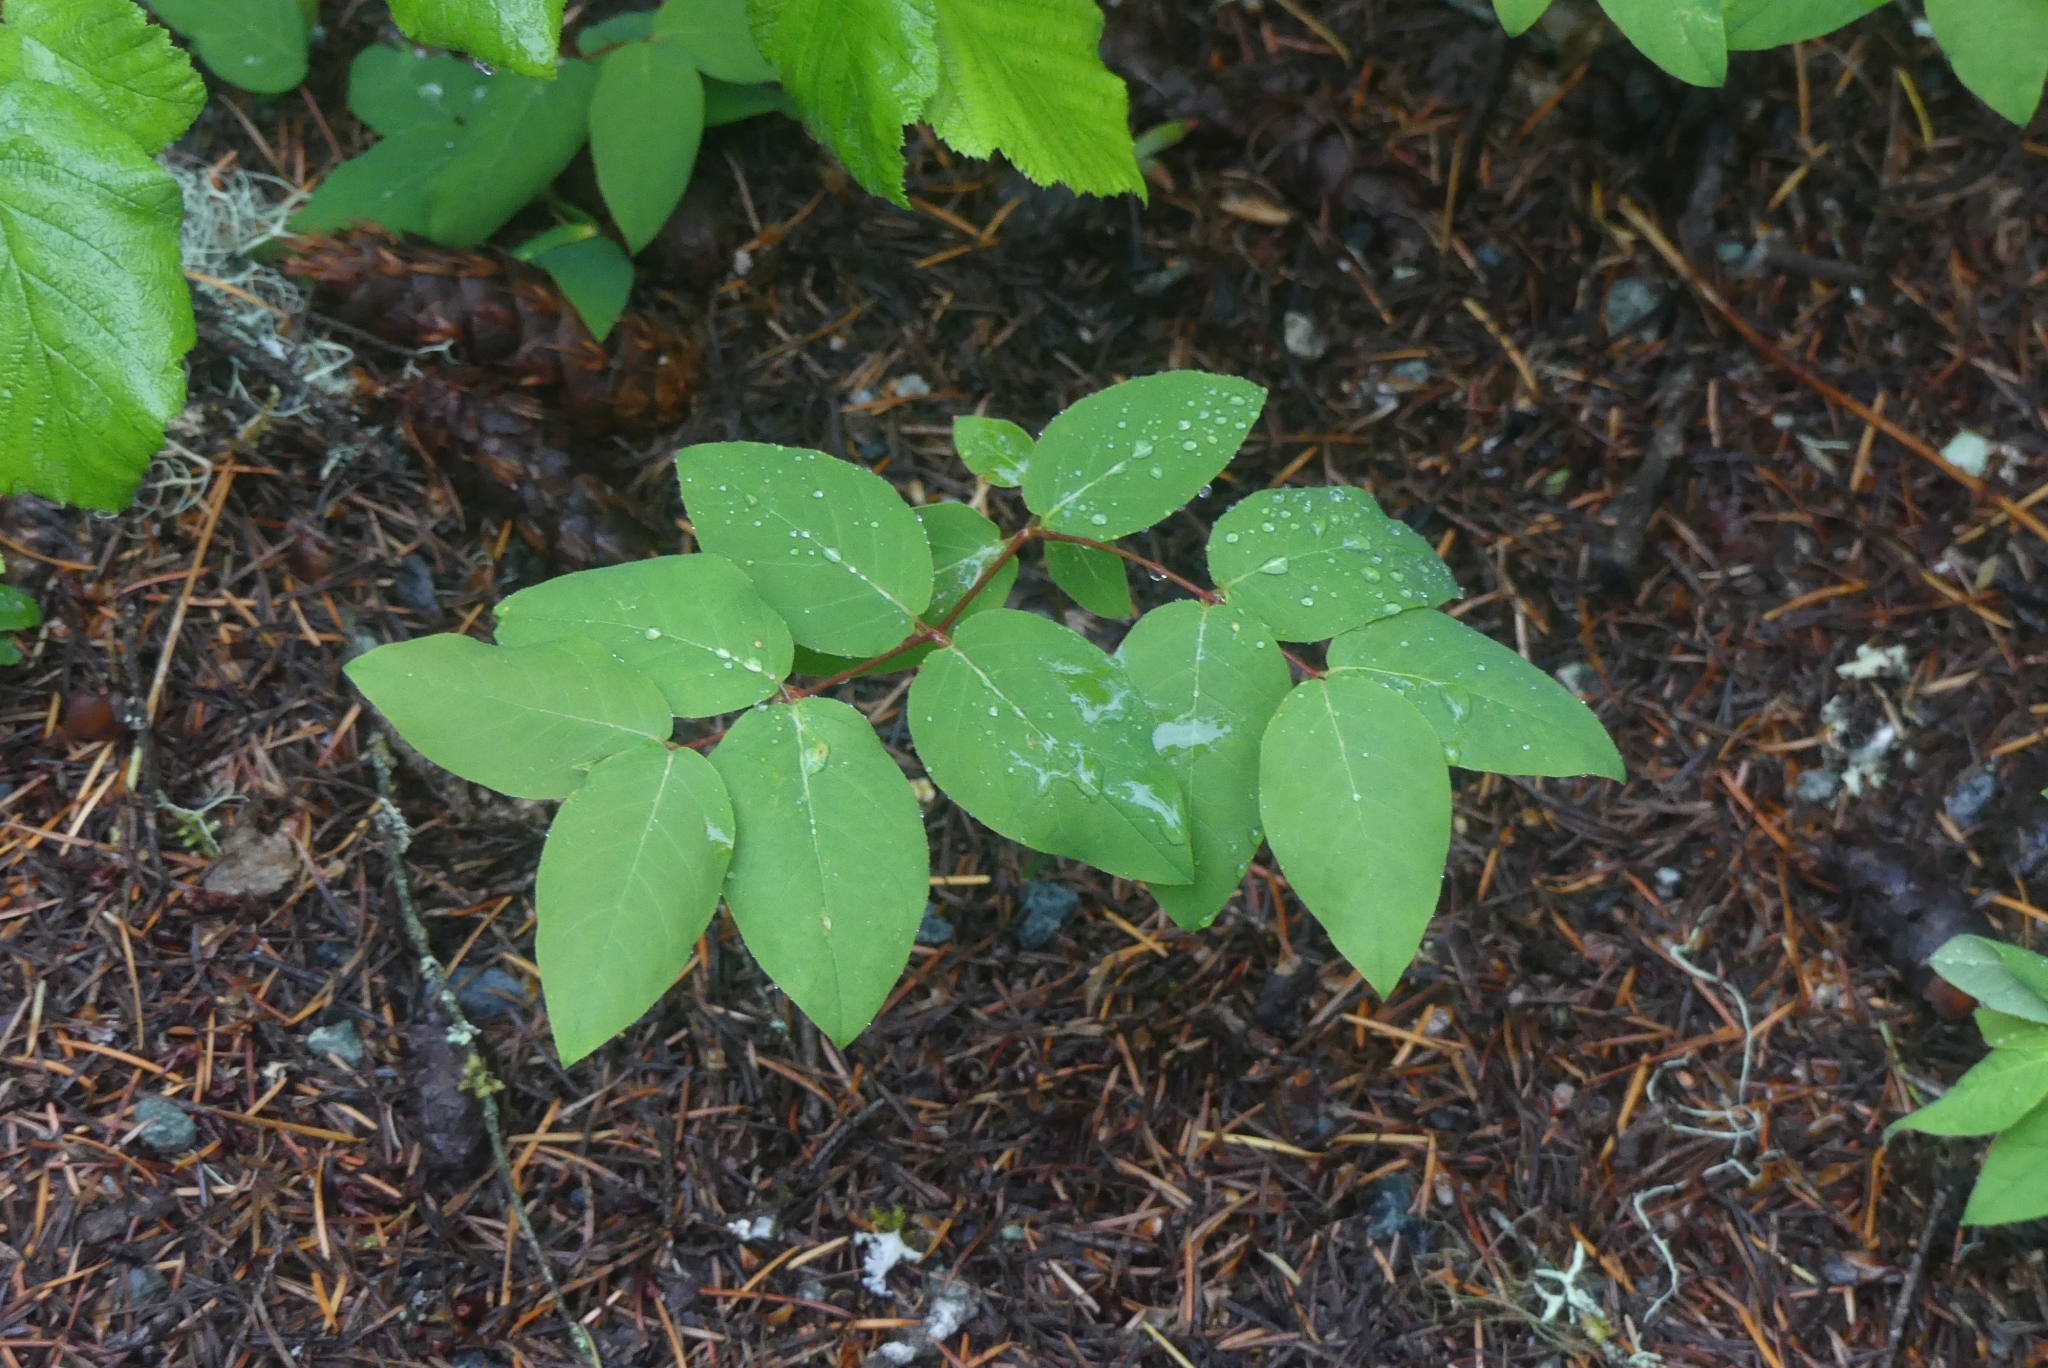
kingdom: Plantae
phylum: Tracheophyta
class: Magnoliopsida
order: Gentianales
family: Apocynaceae
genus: Apocynum
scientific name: Apocynum androsaemifolium
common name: Spreading dogbane
